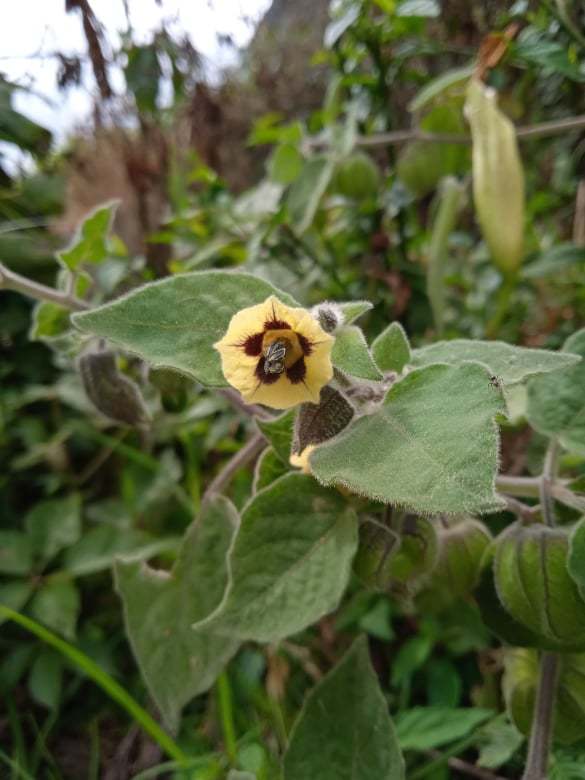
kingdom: Plantae
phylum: Tracheophyta
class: Magnoliopsida
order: Solanales
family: Solanaceae
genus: Physalis
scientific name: Physalis peruviana
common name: Cape-gooseberry
